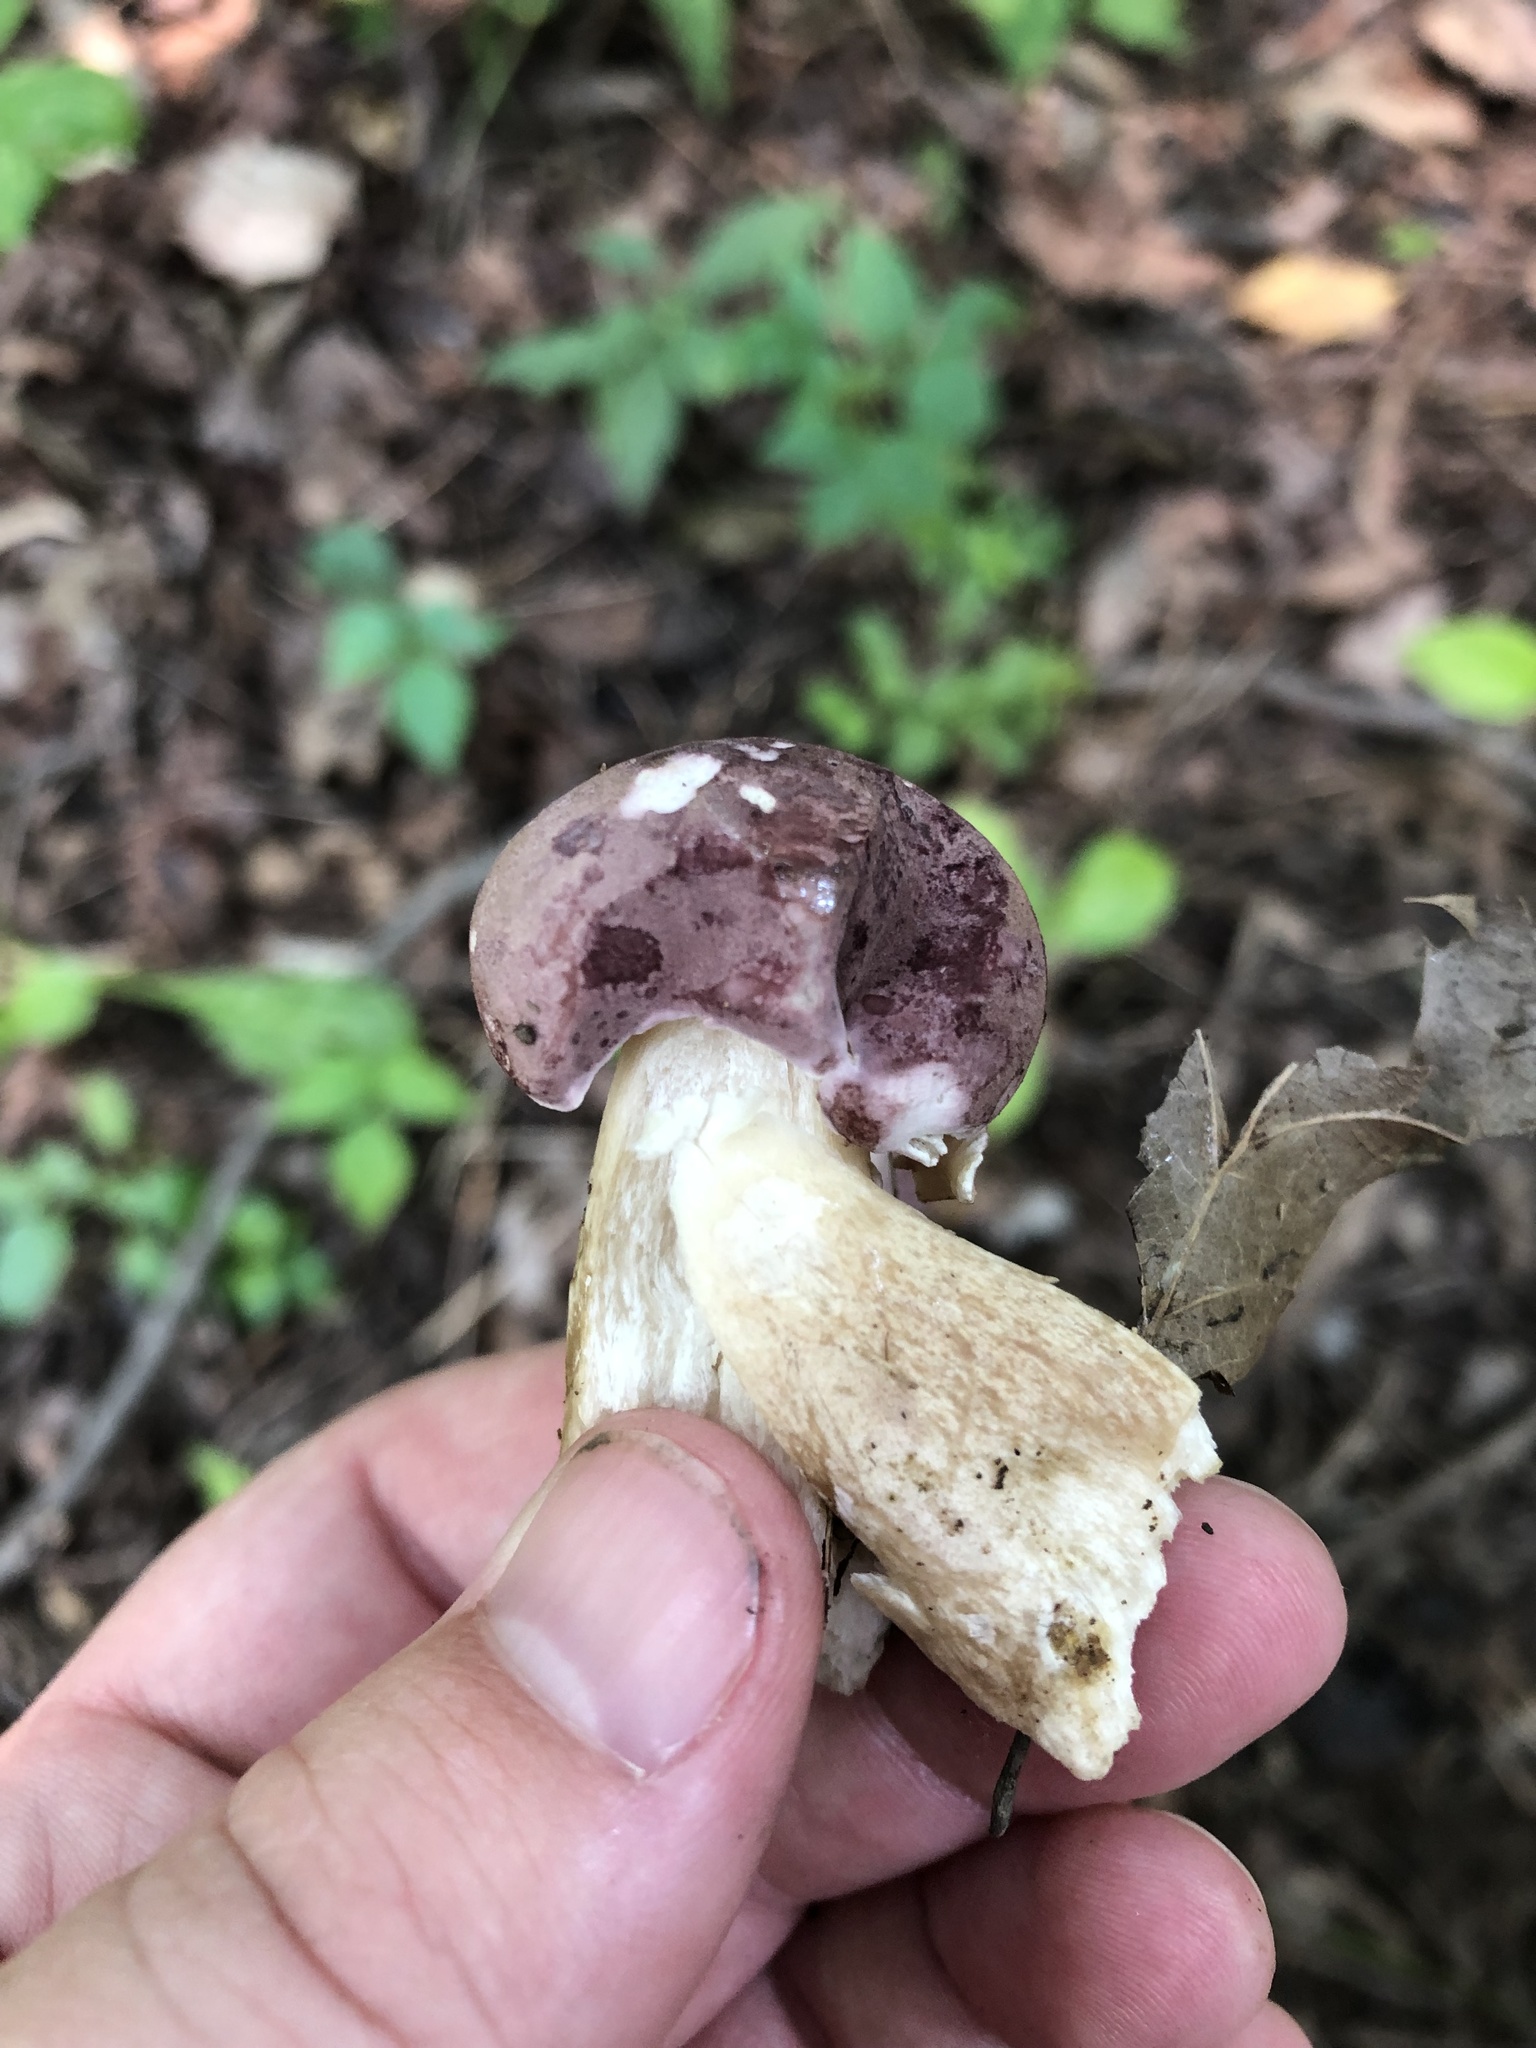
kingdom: Fungi
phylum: Basidiomycota
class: Agaricomycetes
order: Boletales
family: Boletaceae
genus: Tylopilus
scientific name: Tylopilus rubrobrunneus
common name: Reddish brown bitter bolete
